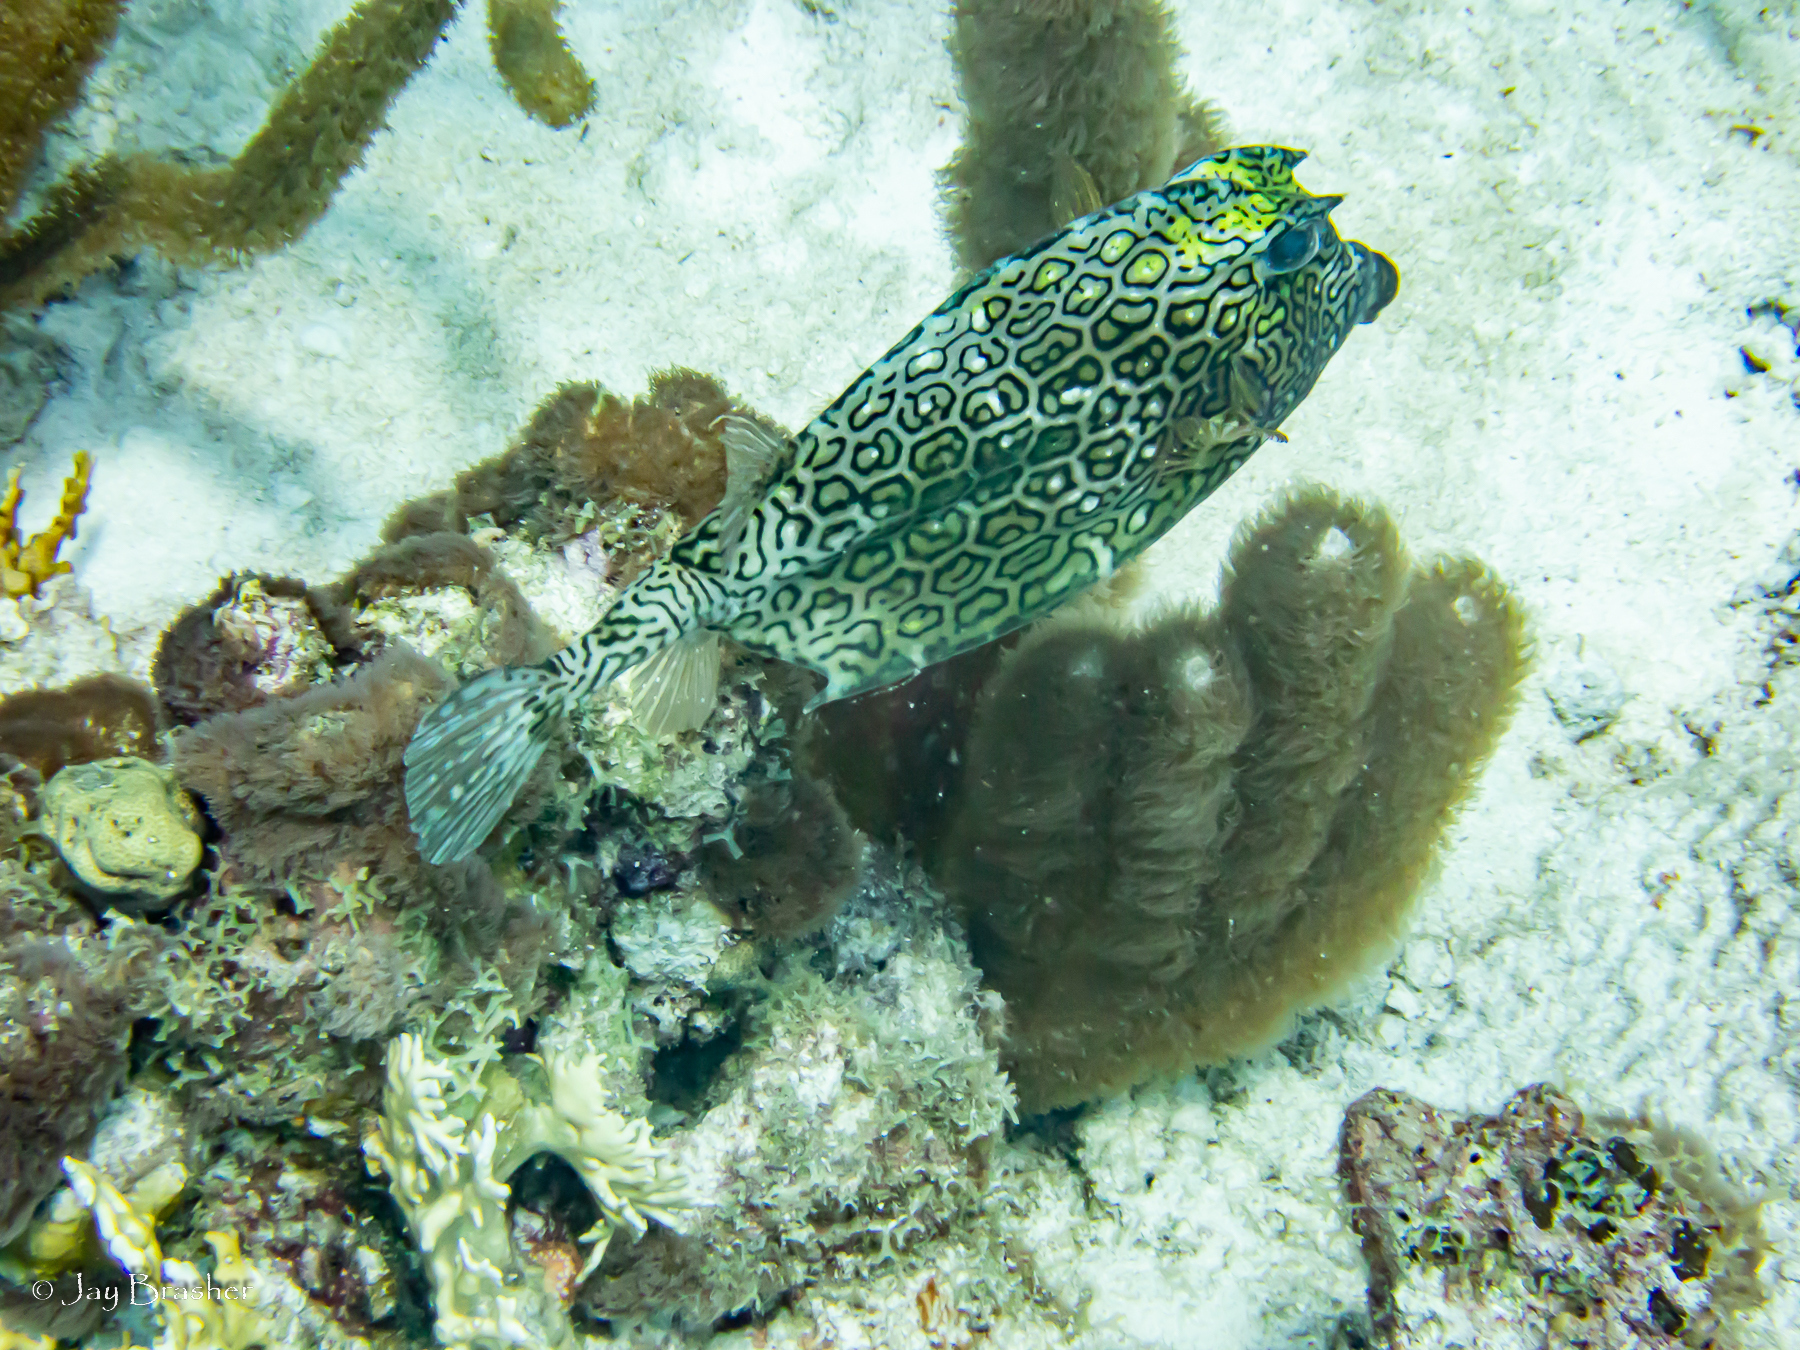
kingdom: Animalia
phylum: Chordata
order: Tetraodontiformes
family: Ostraciidae
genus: Acanthostracion
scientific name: Acanthostracion polygonius
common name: Honeycomb cowfish
